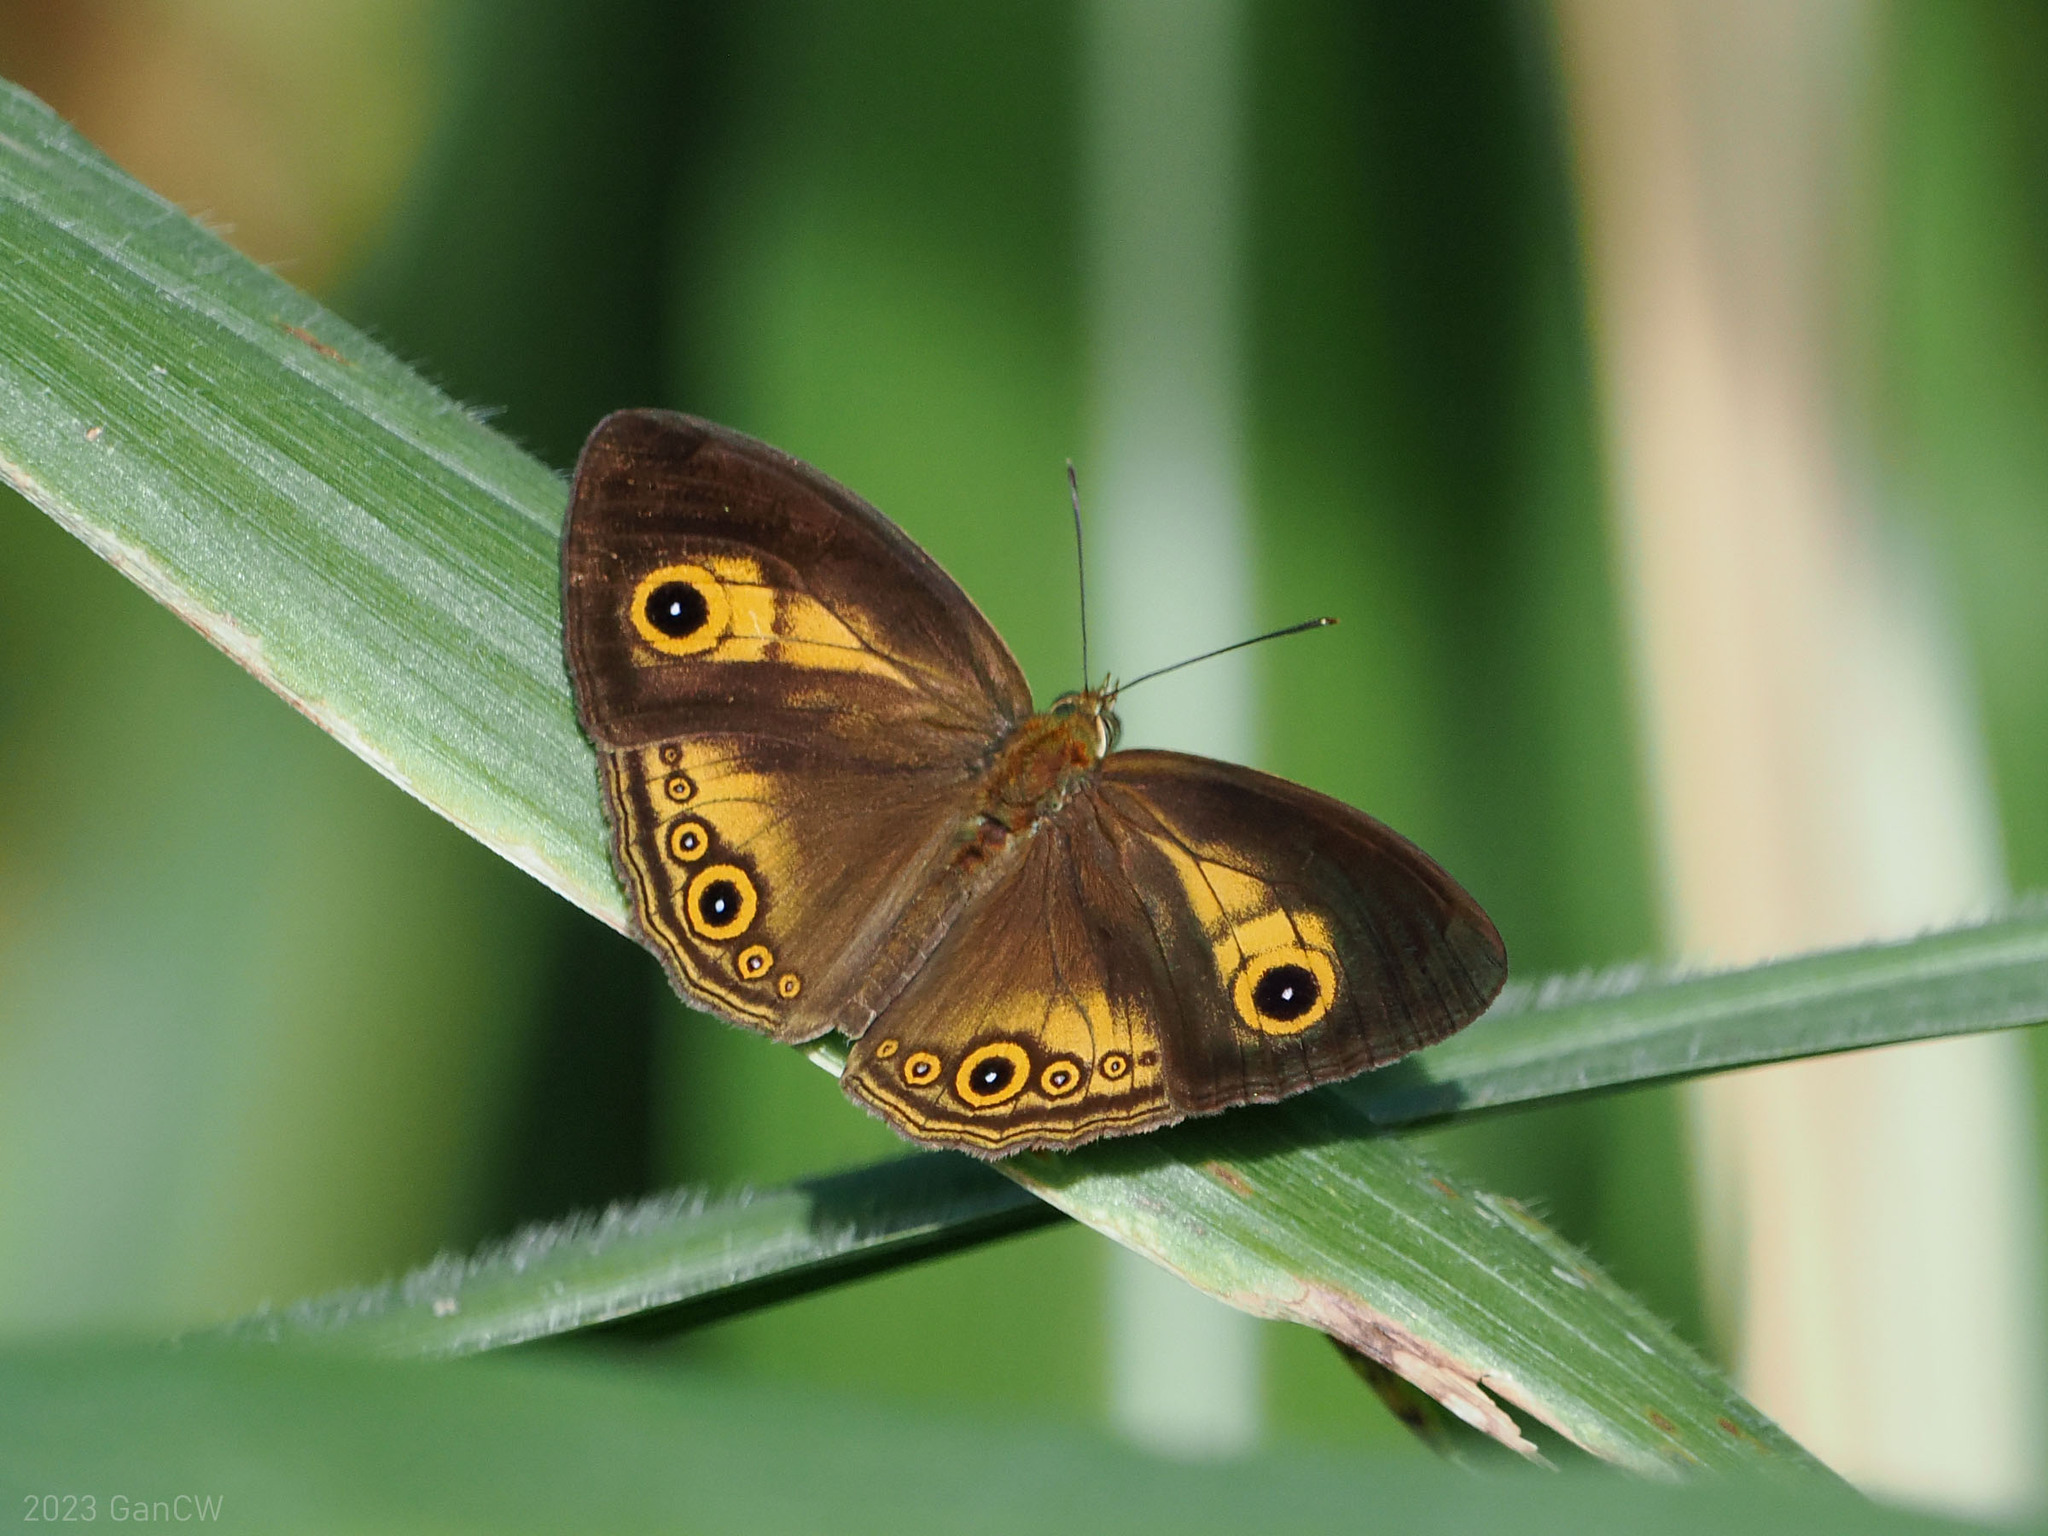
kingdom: Animalia
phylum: Arthropoda
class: Insecta
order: Lepidoptera
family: Nymphalidae
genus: Mycalesis
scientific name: Mycalesis ita
